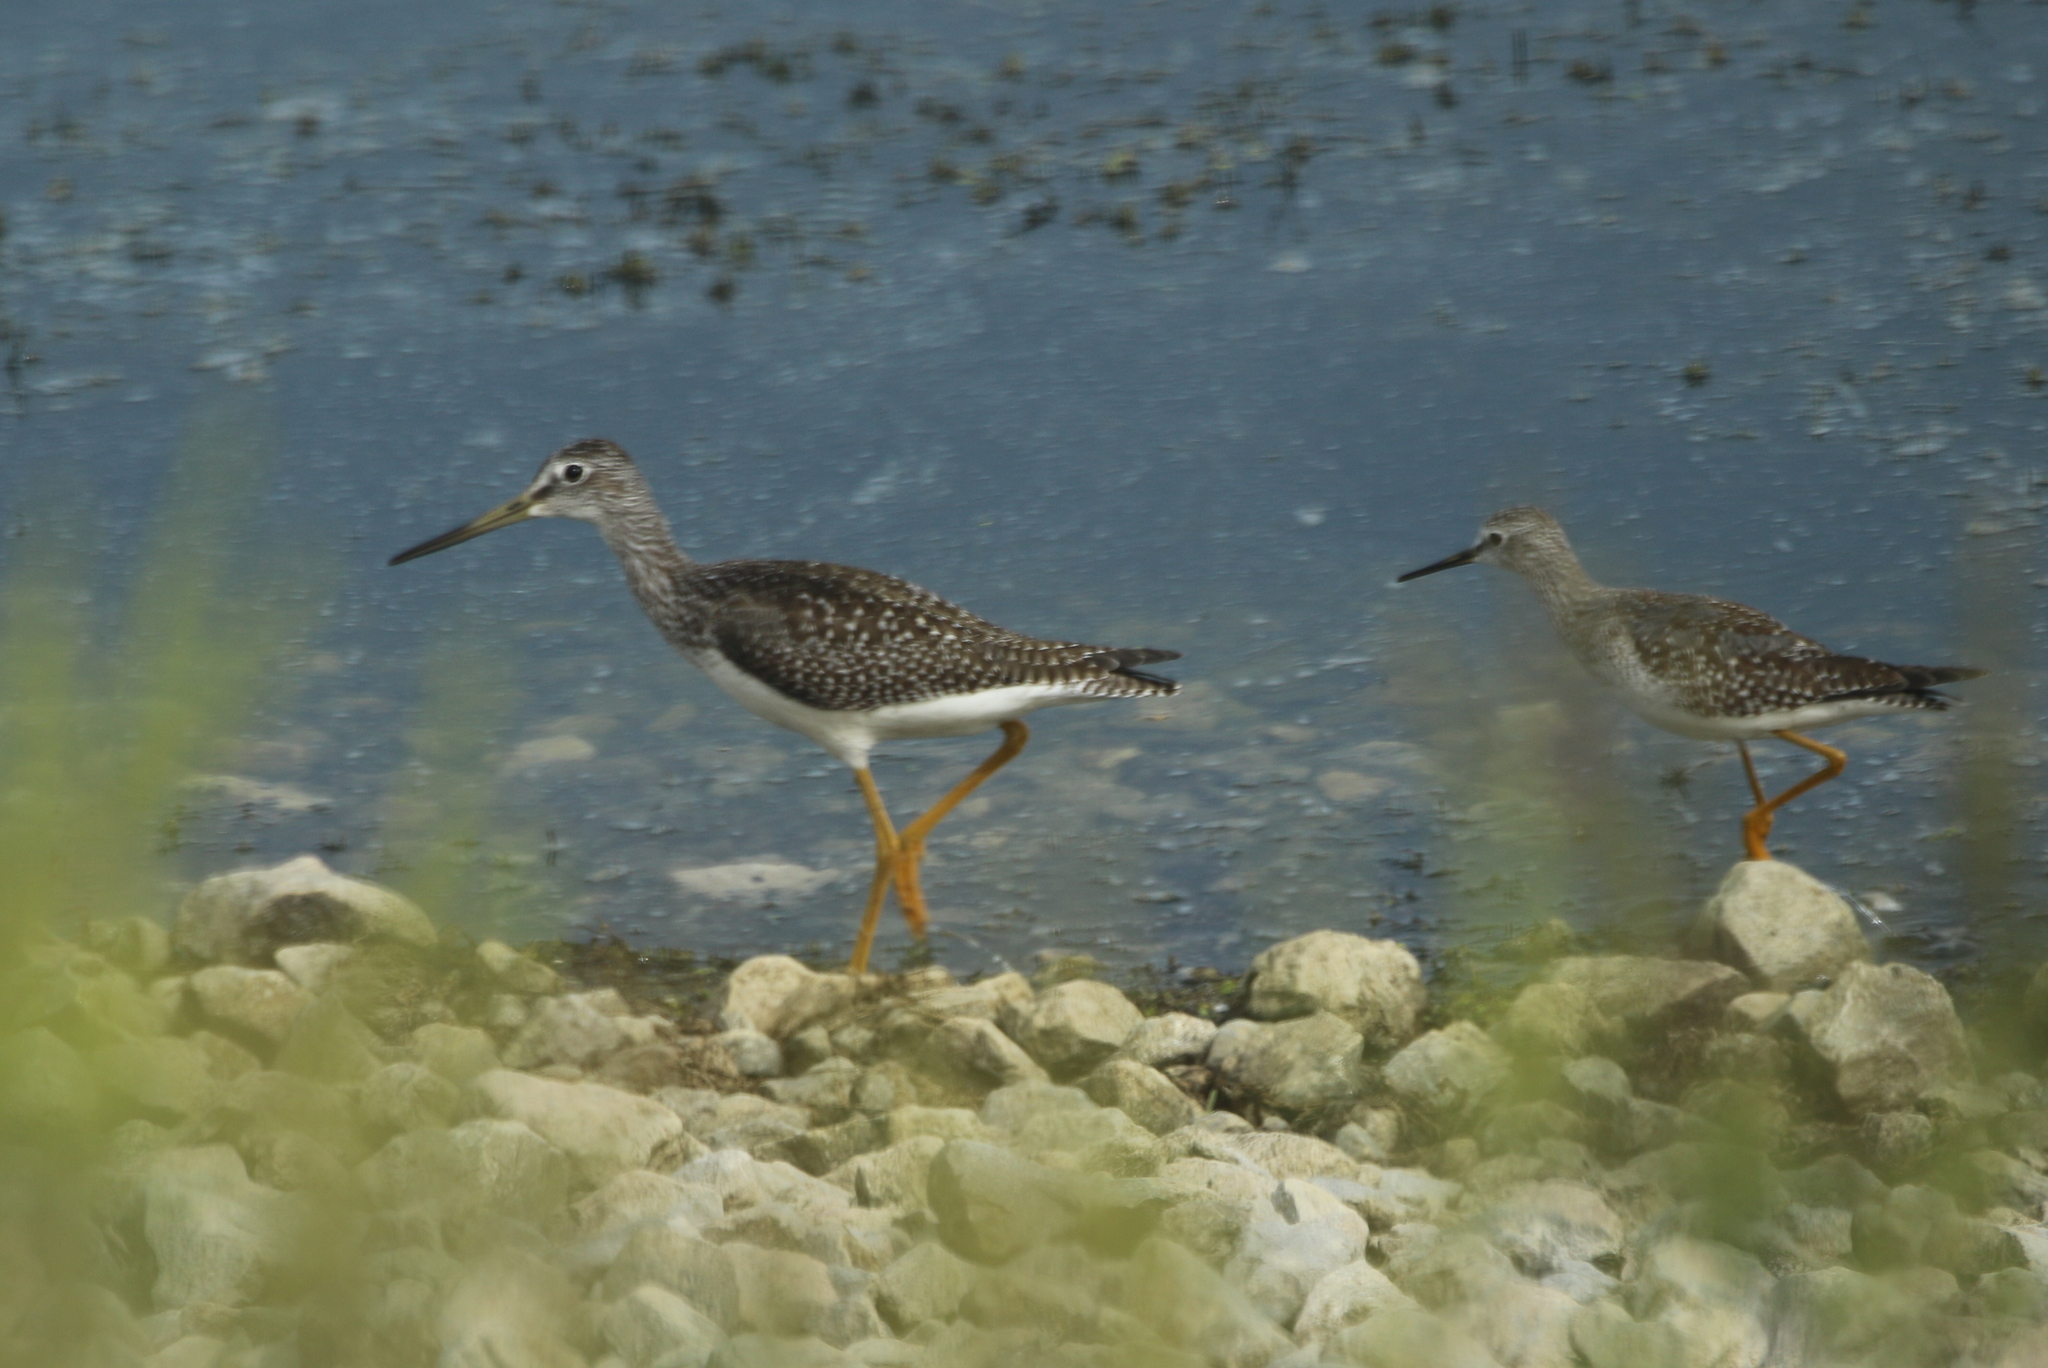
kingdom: Animalia
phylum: Chordata
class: Aves
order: Charadriiformes
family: Scolopacidae
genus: Tringa
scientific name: Tringa melanoleuca
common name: Greater yellowlegs
